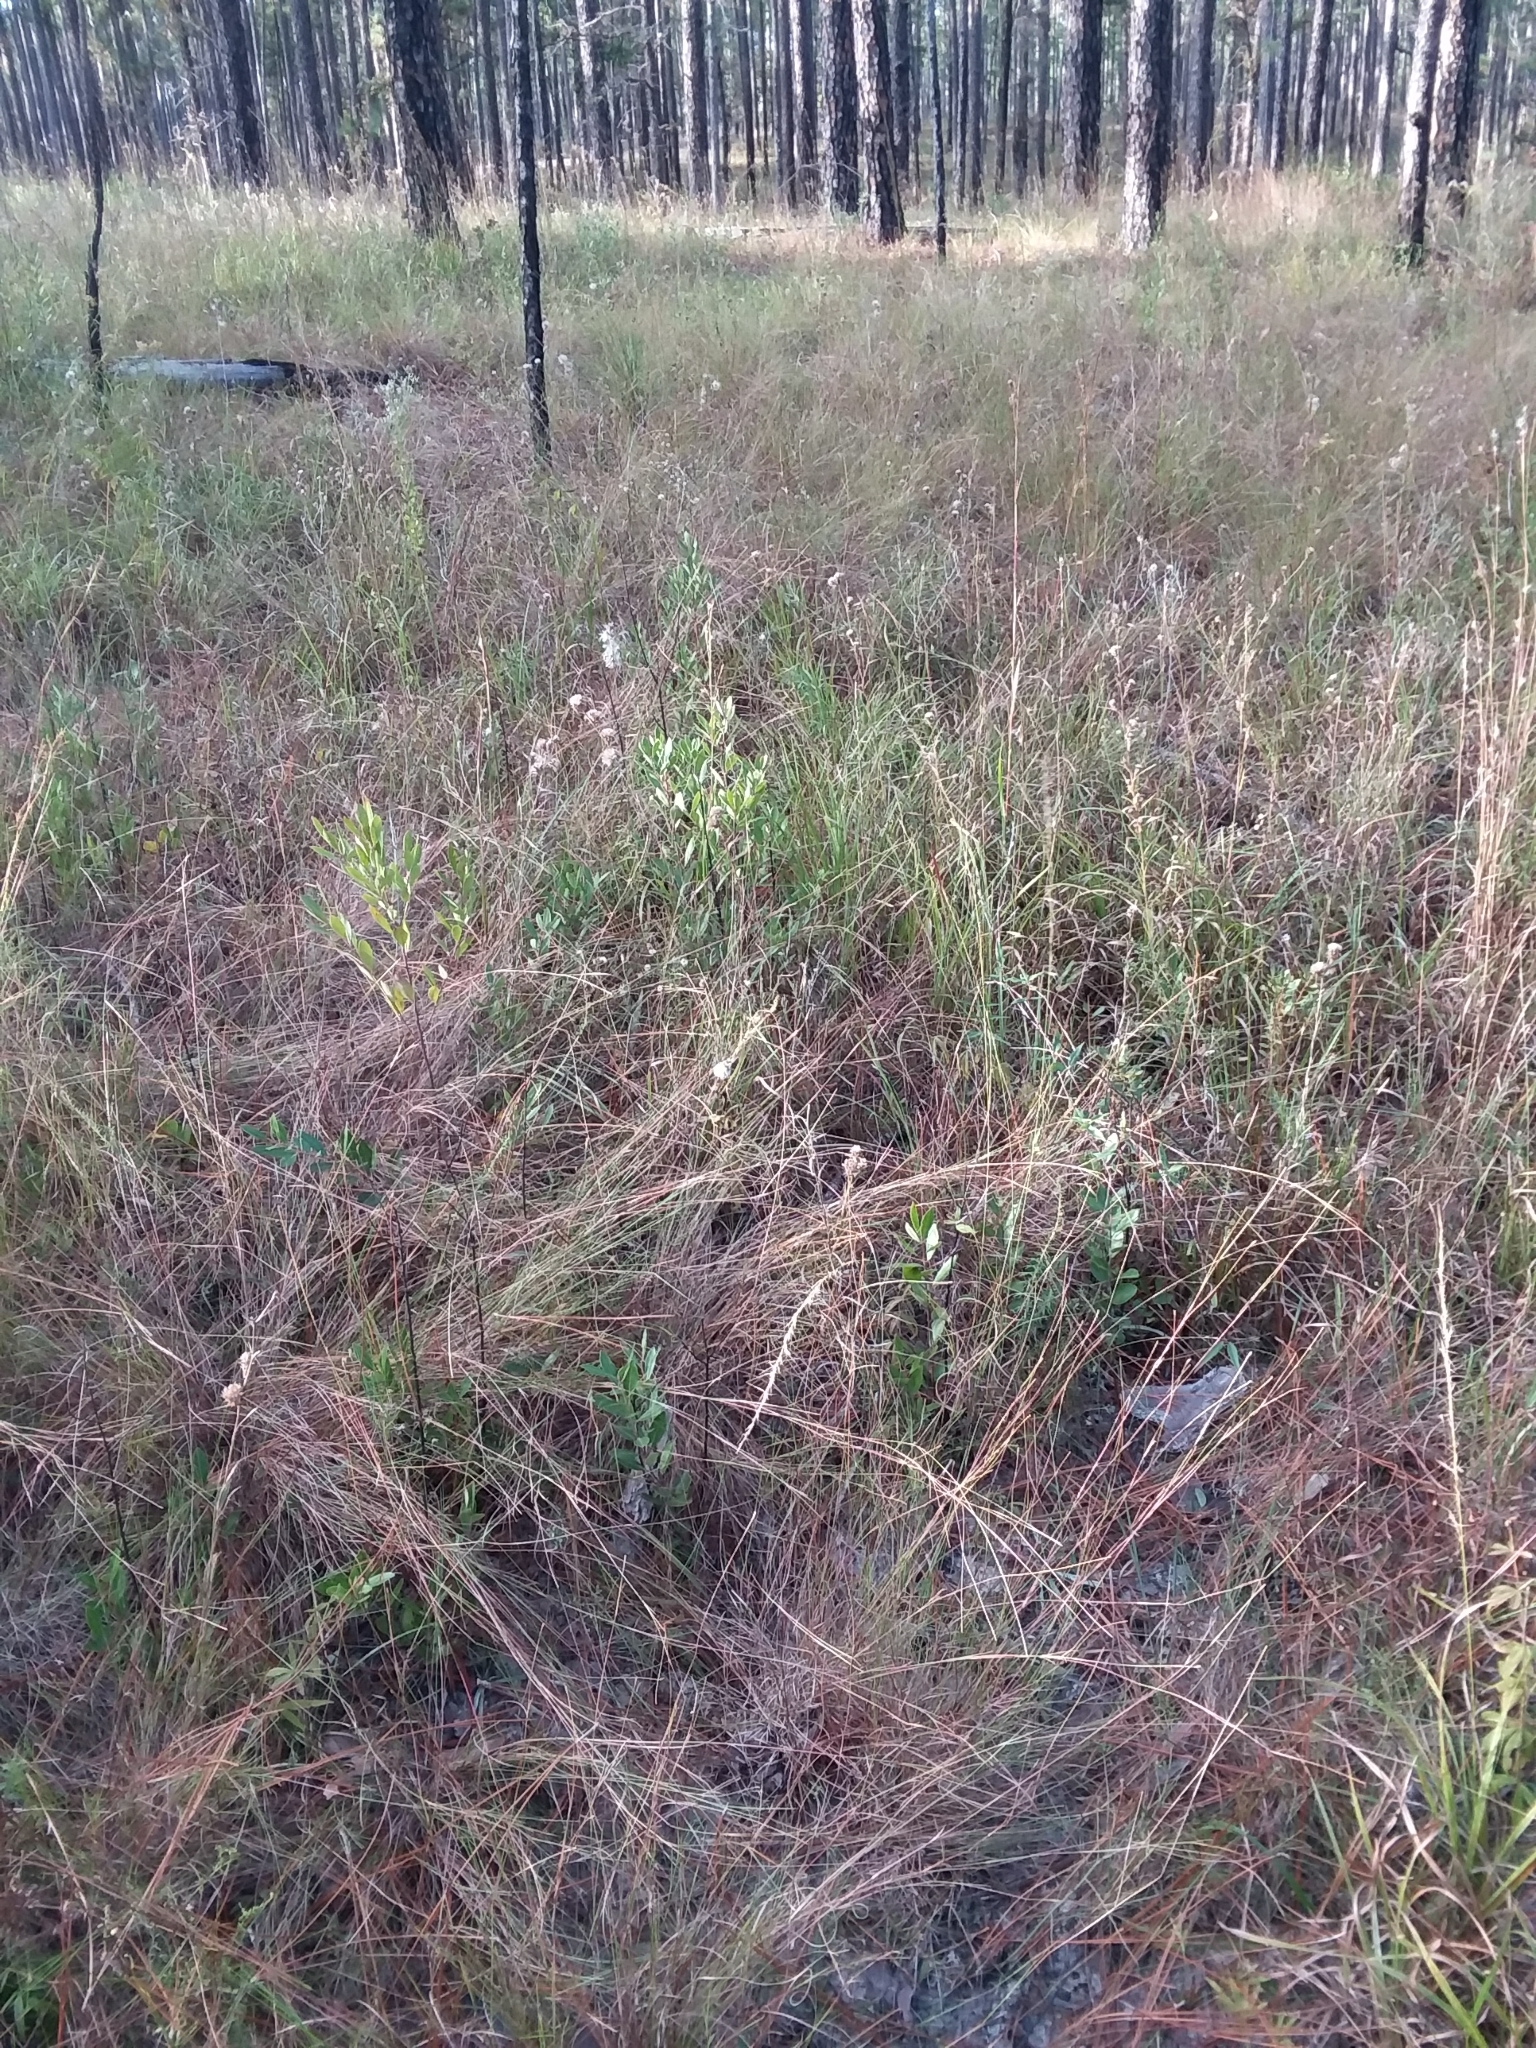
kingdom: Plantae
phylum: Tracheophyta
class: Liliopsida
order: Poales
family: Poaceae
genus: Aristida
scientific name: Aristida purpurascens
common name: Arrow-feather
